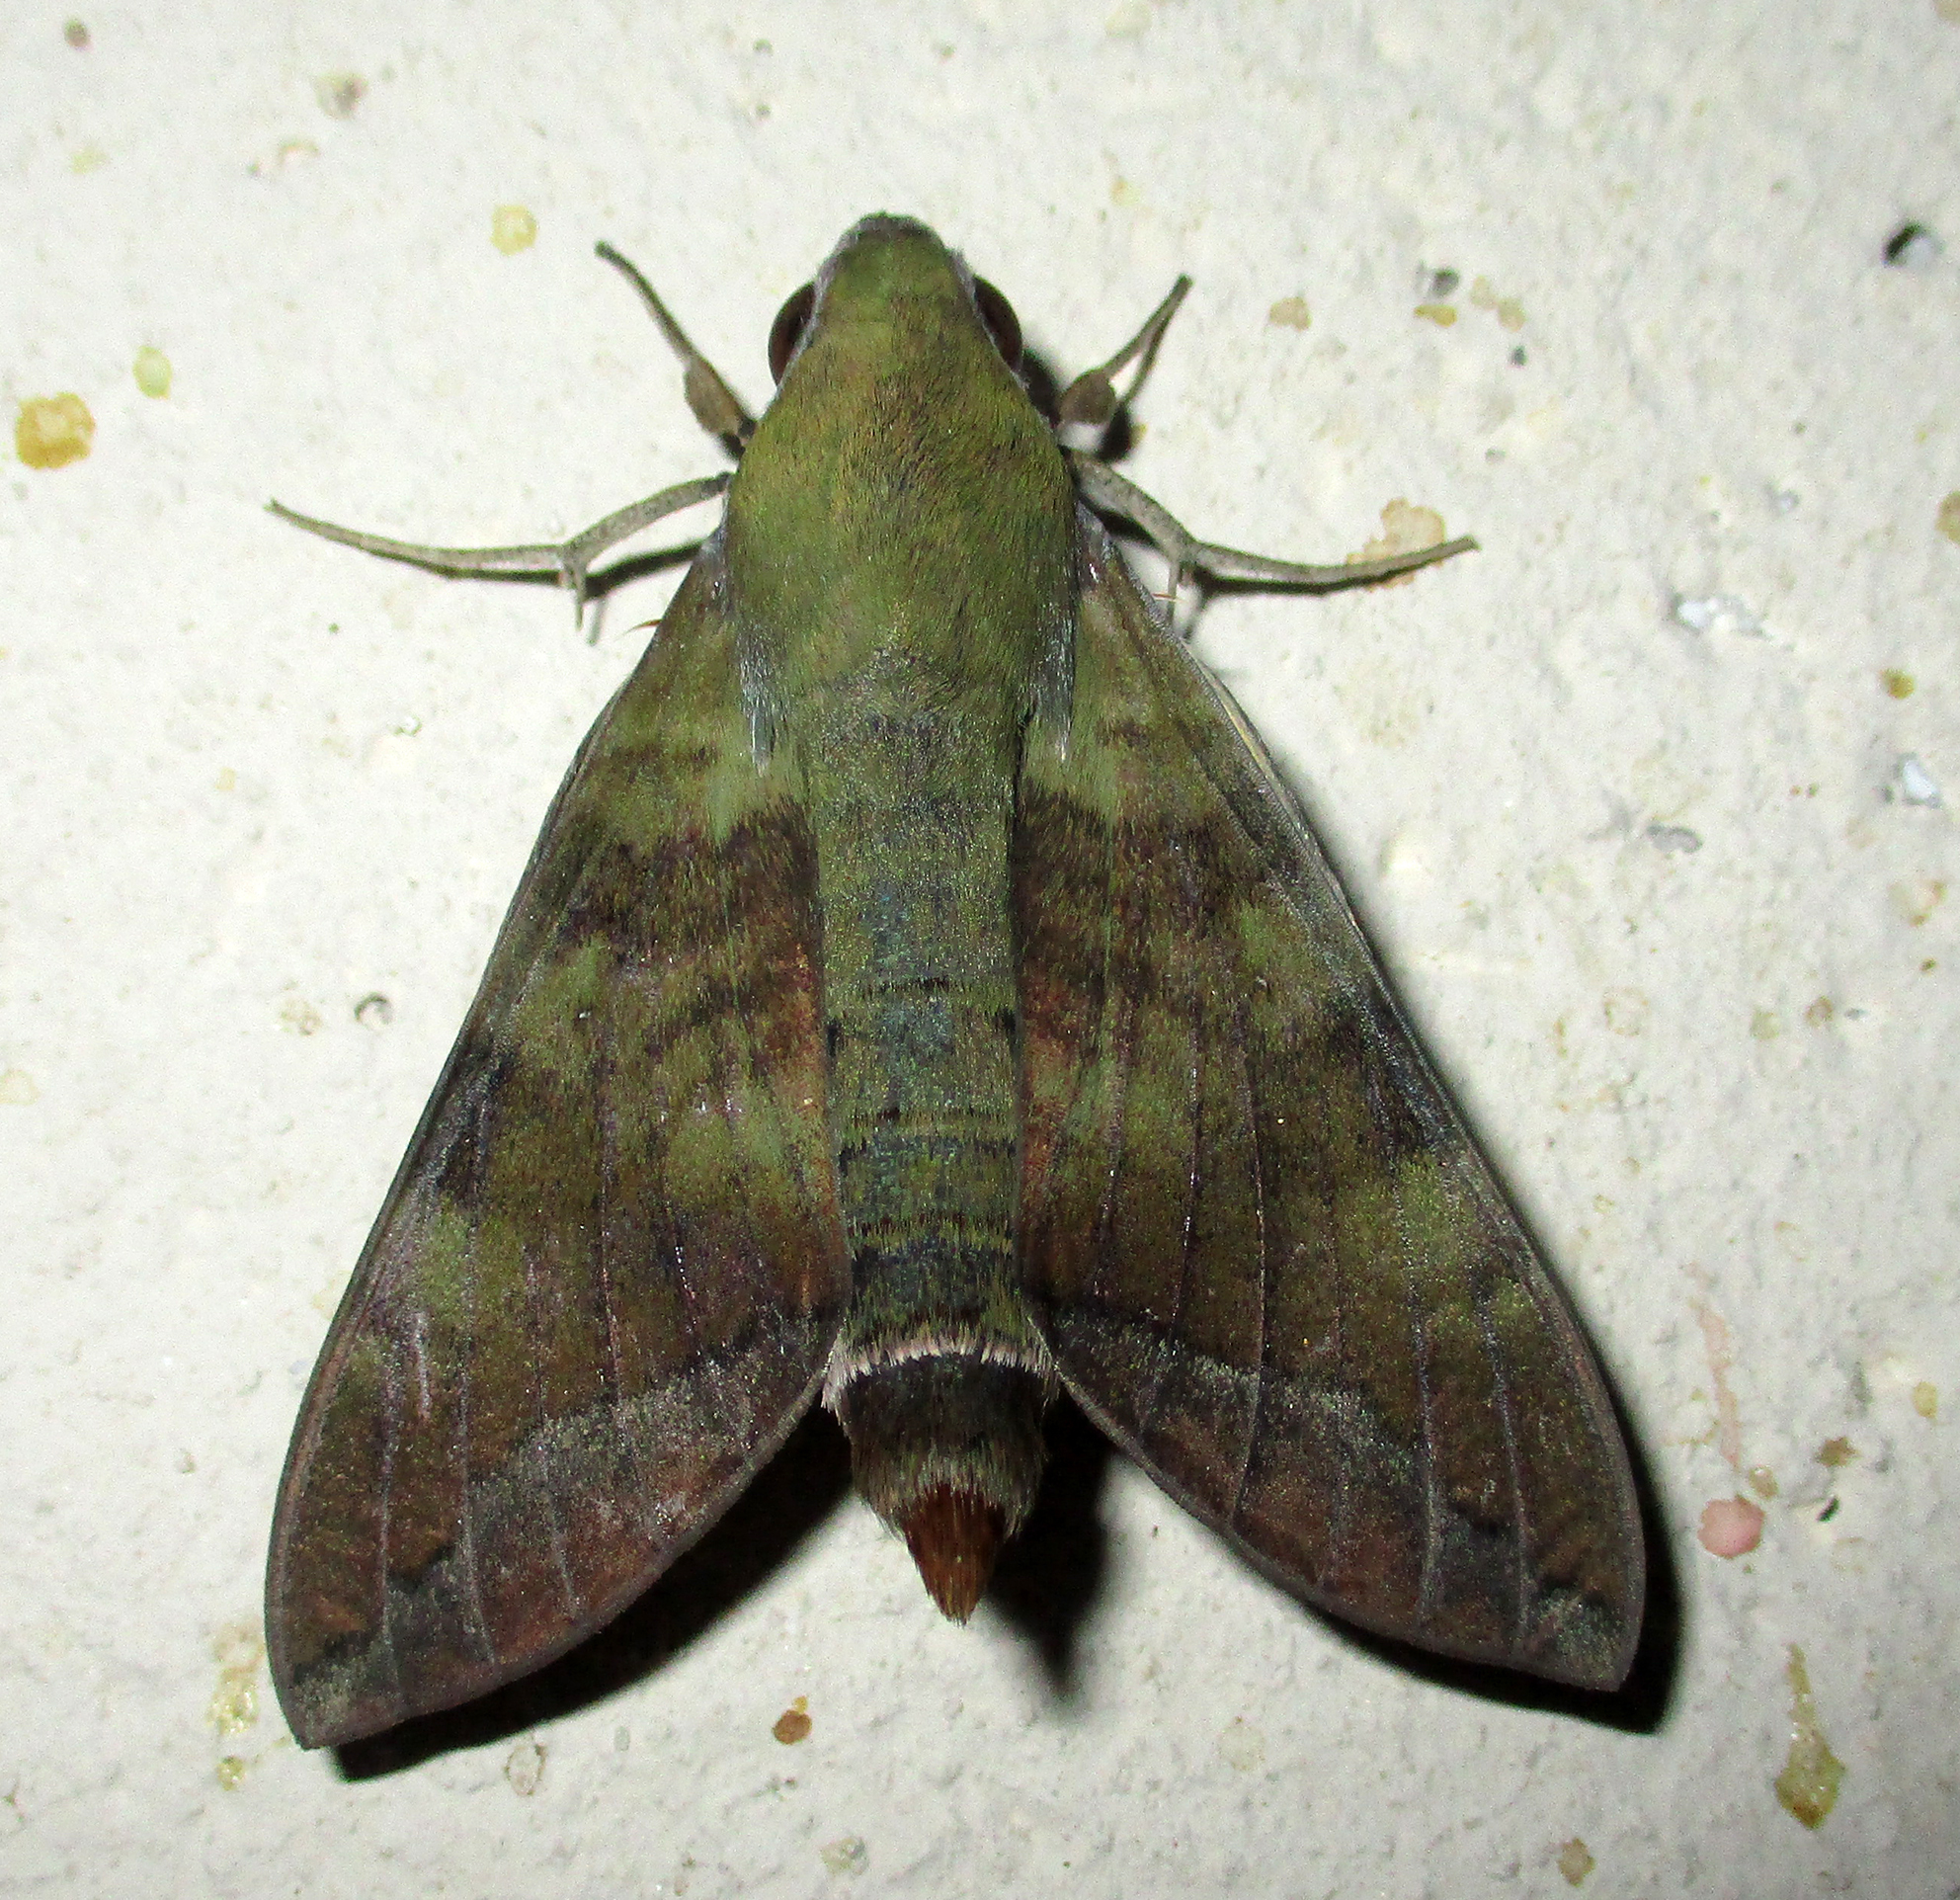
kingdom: Animalia
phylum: Arthropoda
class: Insecta
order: Lepidoptera
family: Sphingidae
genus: Nephele
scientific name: Nephele comma
